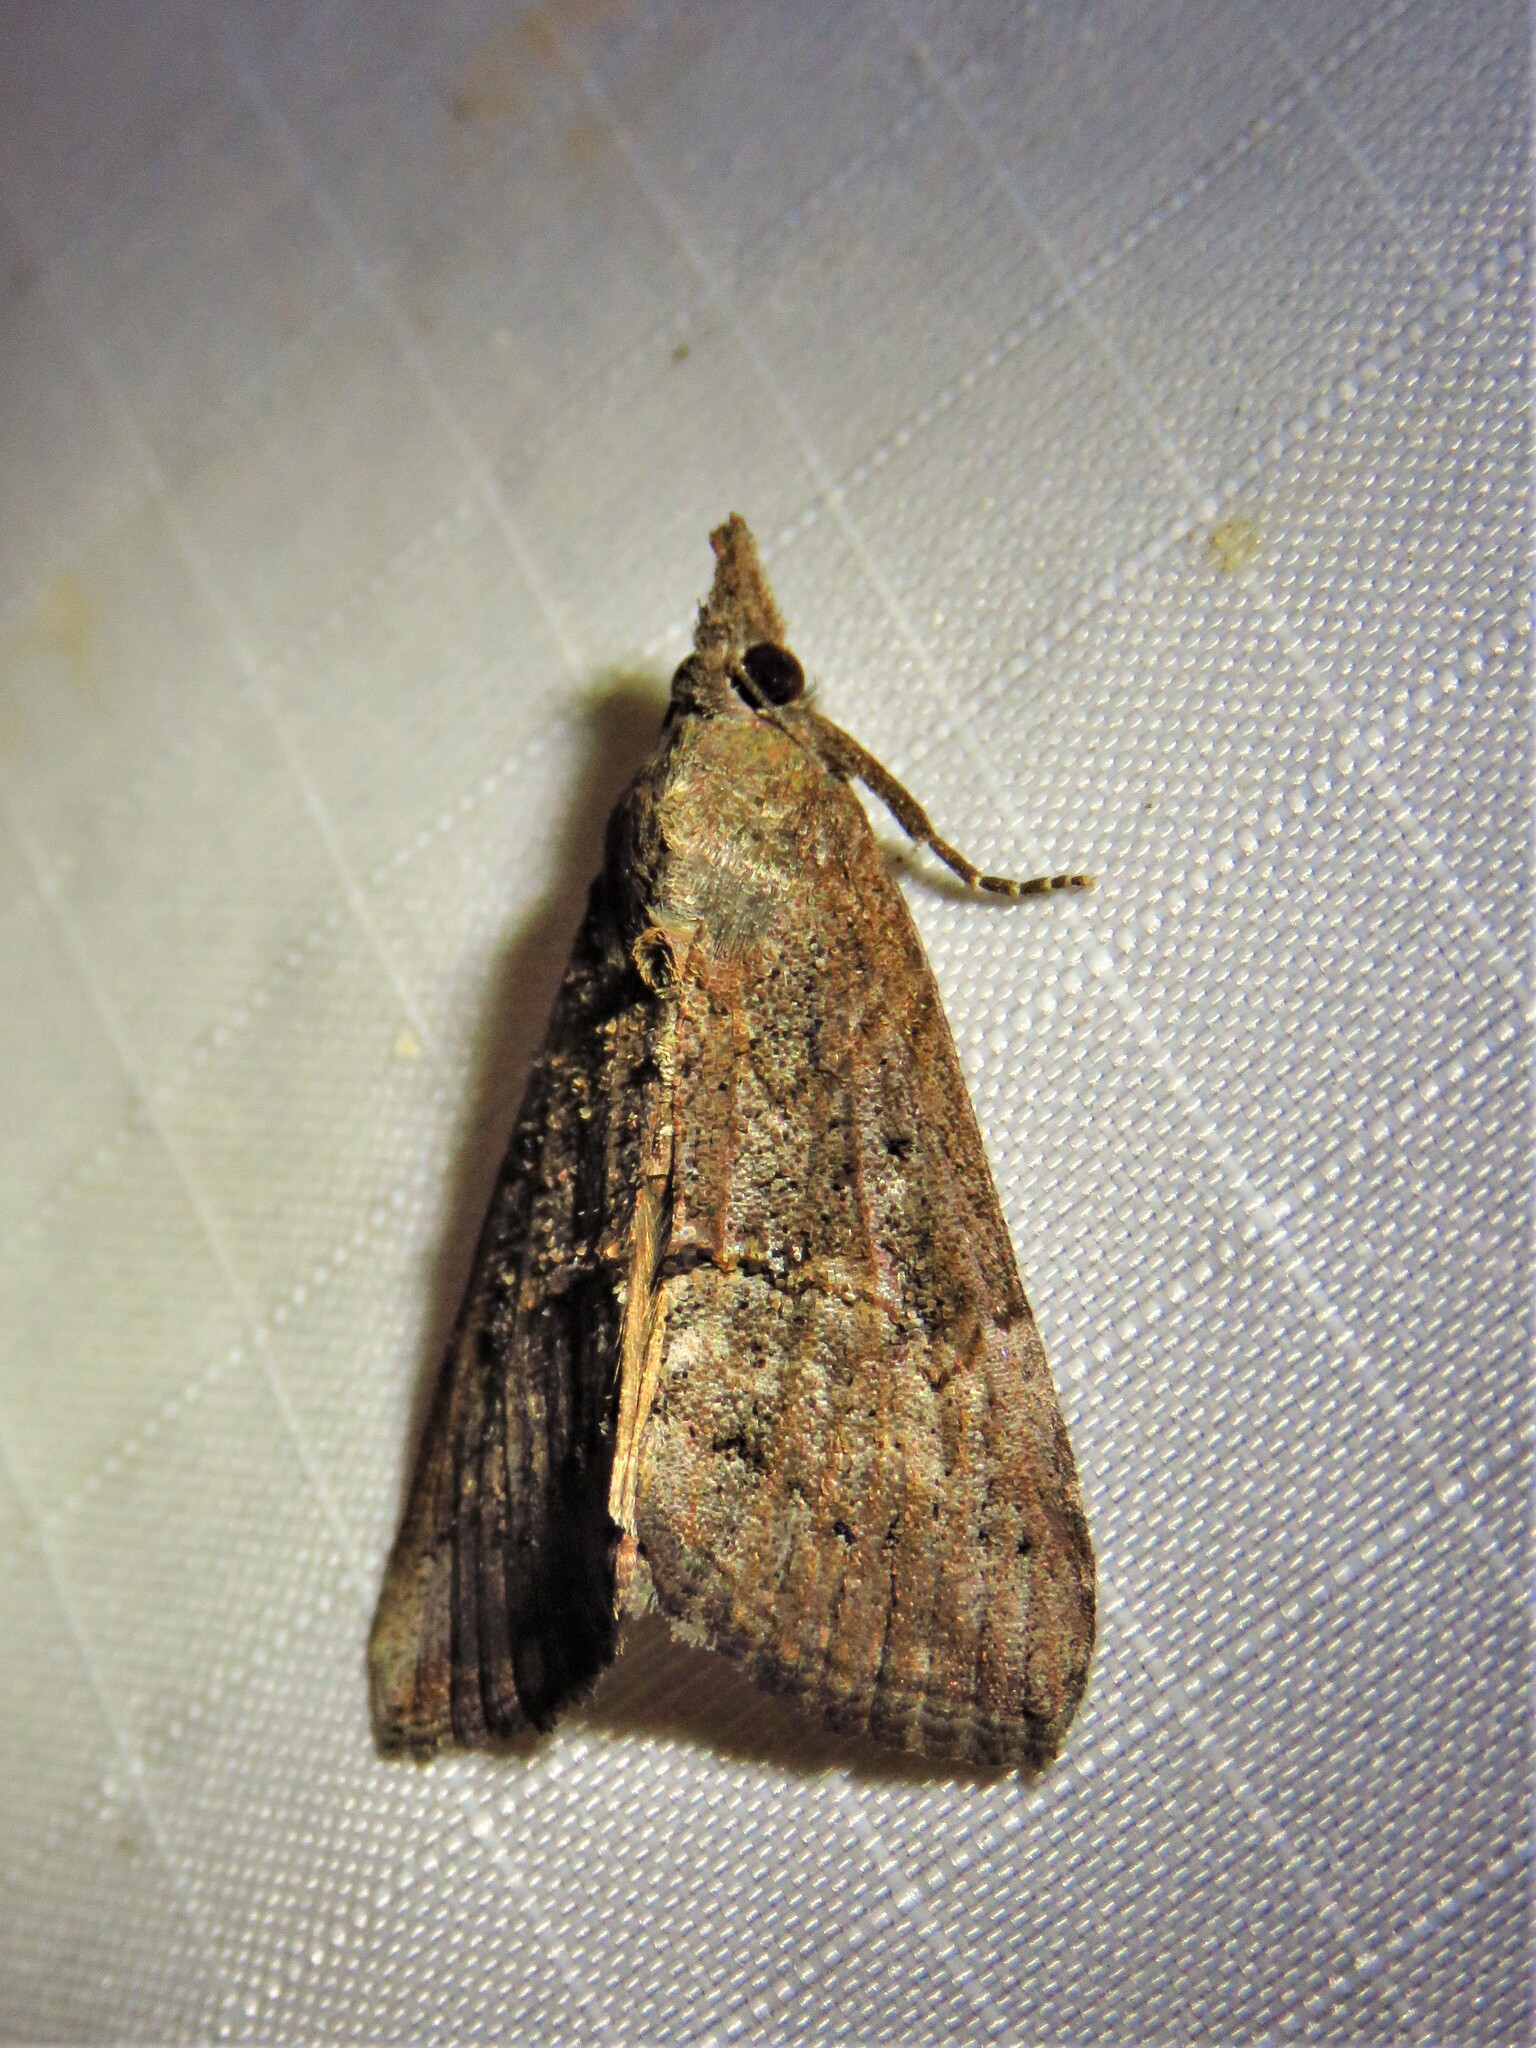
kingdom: Animalia
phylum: Arthropoda
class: Insecta
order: Lepidoptera
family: Erebidae
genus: Hypena
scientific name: Hypena scabra
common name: Green cloverworm
